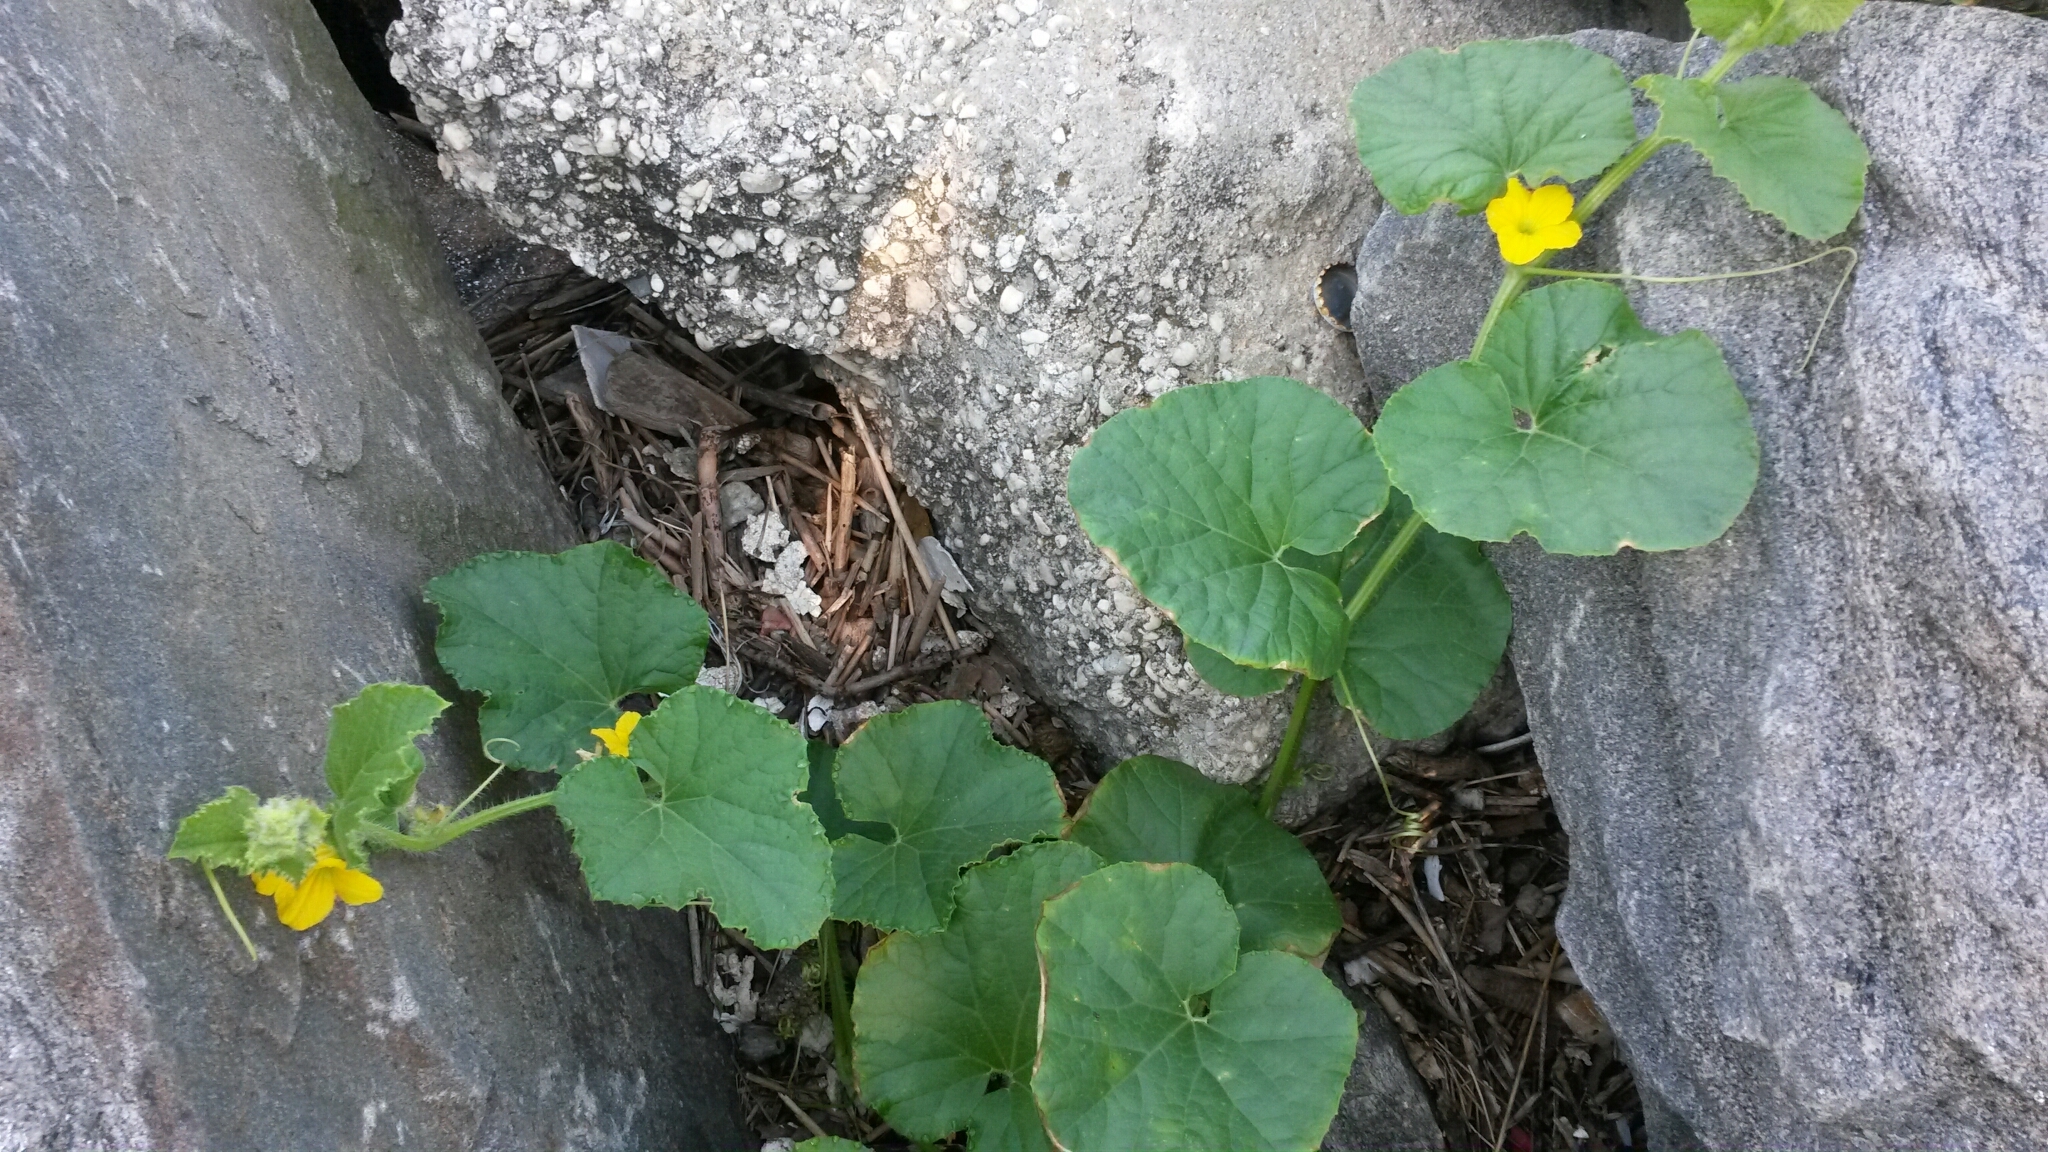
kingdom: Plantae
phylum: Tracheophyta
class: Magnoliopsida
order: Cucurbitales
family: Cucurbitaceae
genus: Cucumis
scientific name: Cucumis melo
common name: Melon
